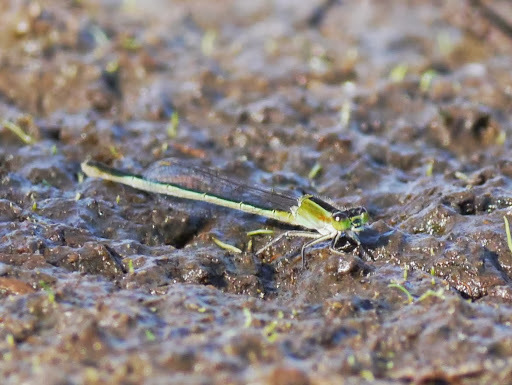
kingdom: Animalia
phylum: Arthropoda
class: Insecta
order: Odonata
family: Coenagrionidae
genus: Ischnura
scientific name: Ischnura ramburii
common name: Rambur's forktail
